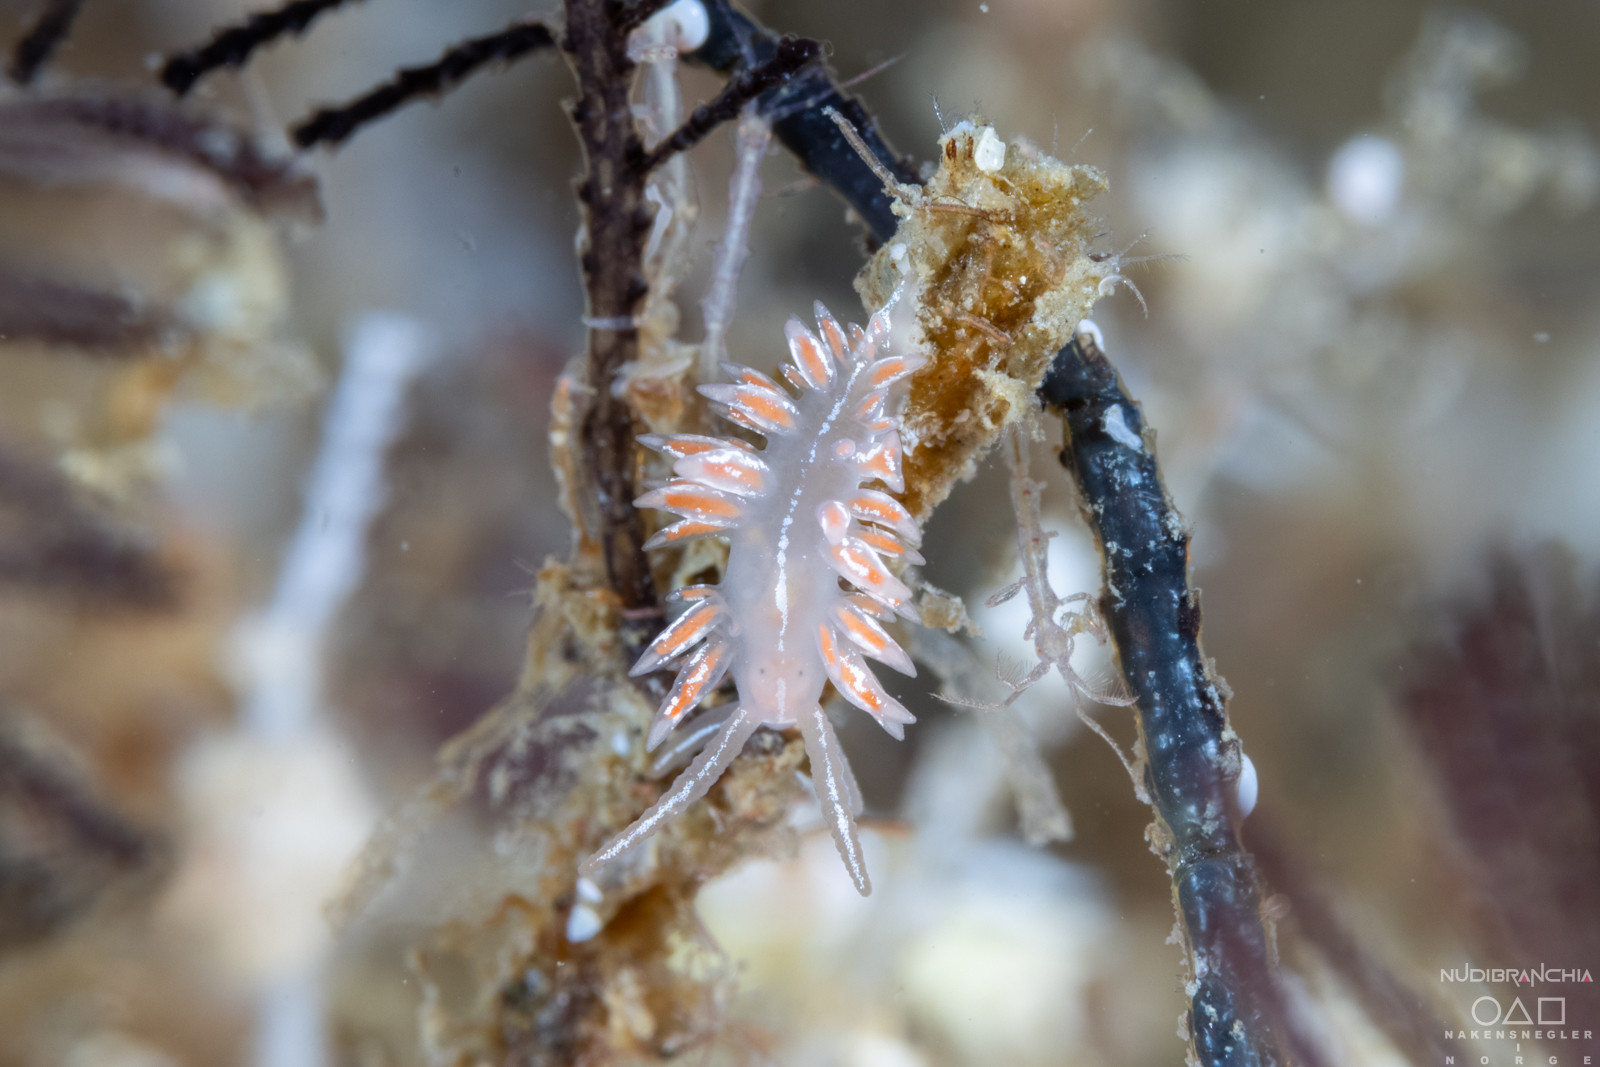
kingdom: Animalia
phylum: Mollusca
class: Gastropoda
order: Nudibranchia
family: Coryphellidae
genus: Coryphella
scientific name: Coryphella chriskaugei
